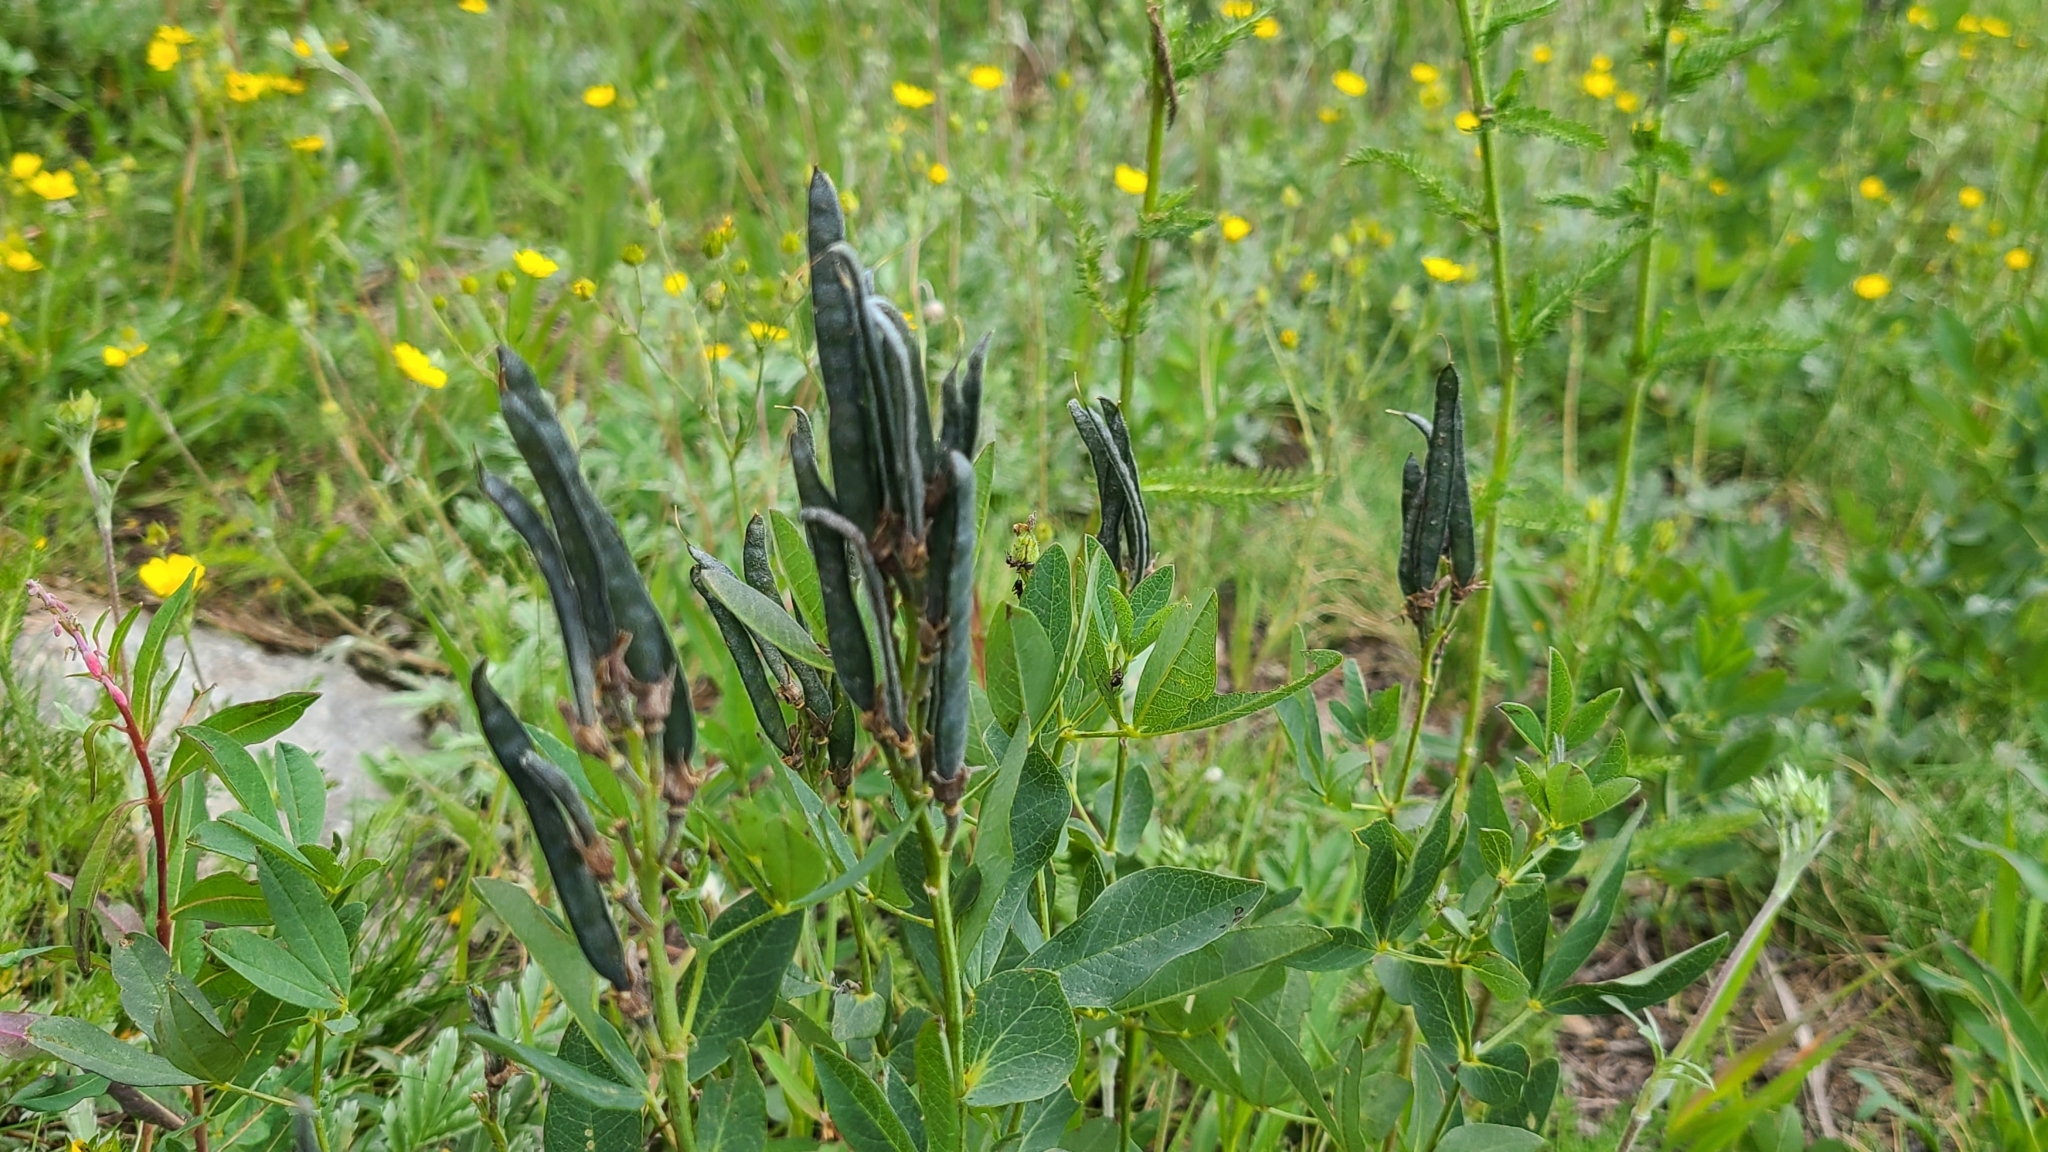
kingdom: Plantae
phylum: Tracheophyta
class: Magnoliopsida
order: Fabales
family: Fabaceae
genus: Thermopsis
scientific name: Thermopsis montana
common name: False lupin
